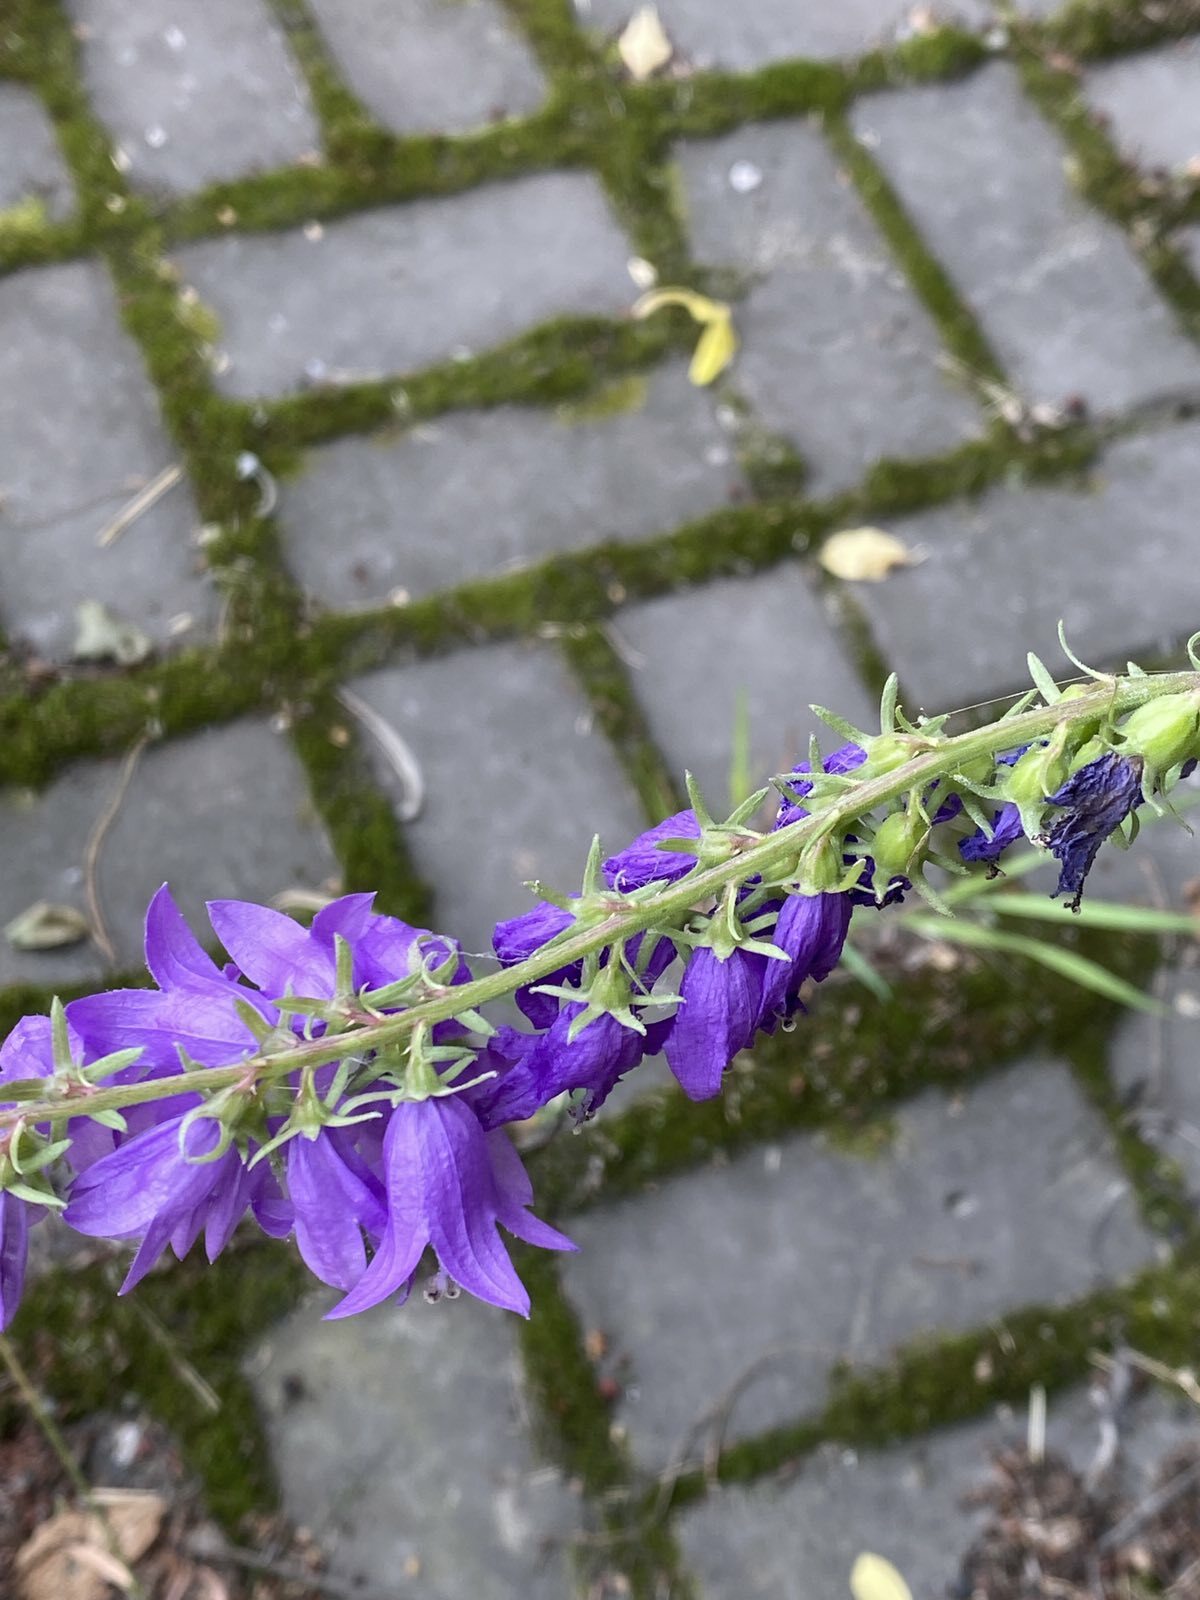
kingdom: Plantae
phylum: Tracheophyta
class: Magnoliopsida
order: Asterales
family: Campanulaceae
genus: Campanula
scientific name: Campanula rapunculoides
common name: Creeping bellflower
